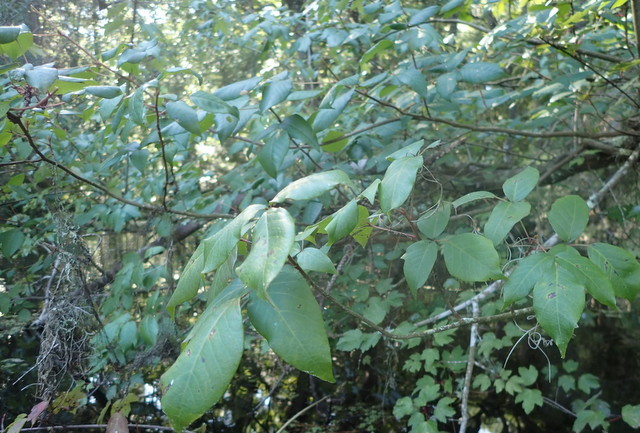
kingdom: Plantae
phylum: Tracheophyta
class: Magnoliopsida
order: Sapindales
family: Anacardiaceae
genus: Toxicodendron
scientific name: Toxicodendron radicans
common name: Poison ivy
